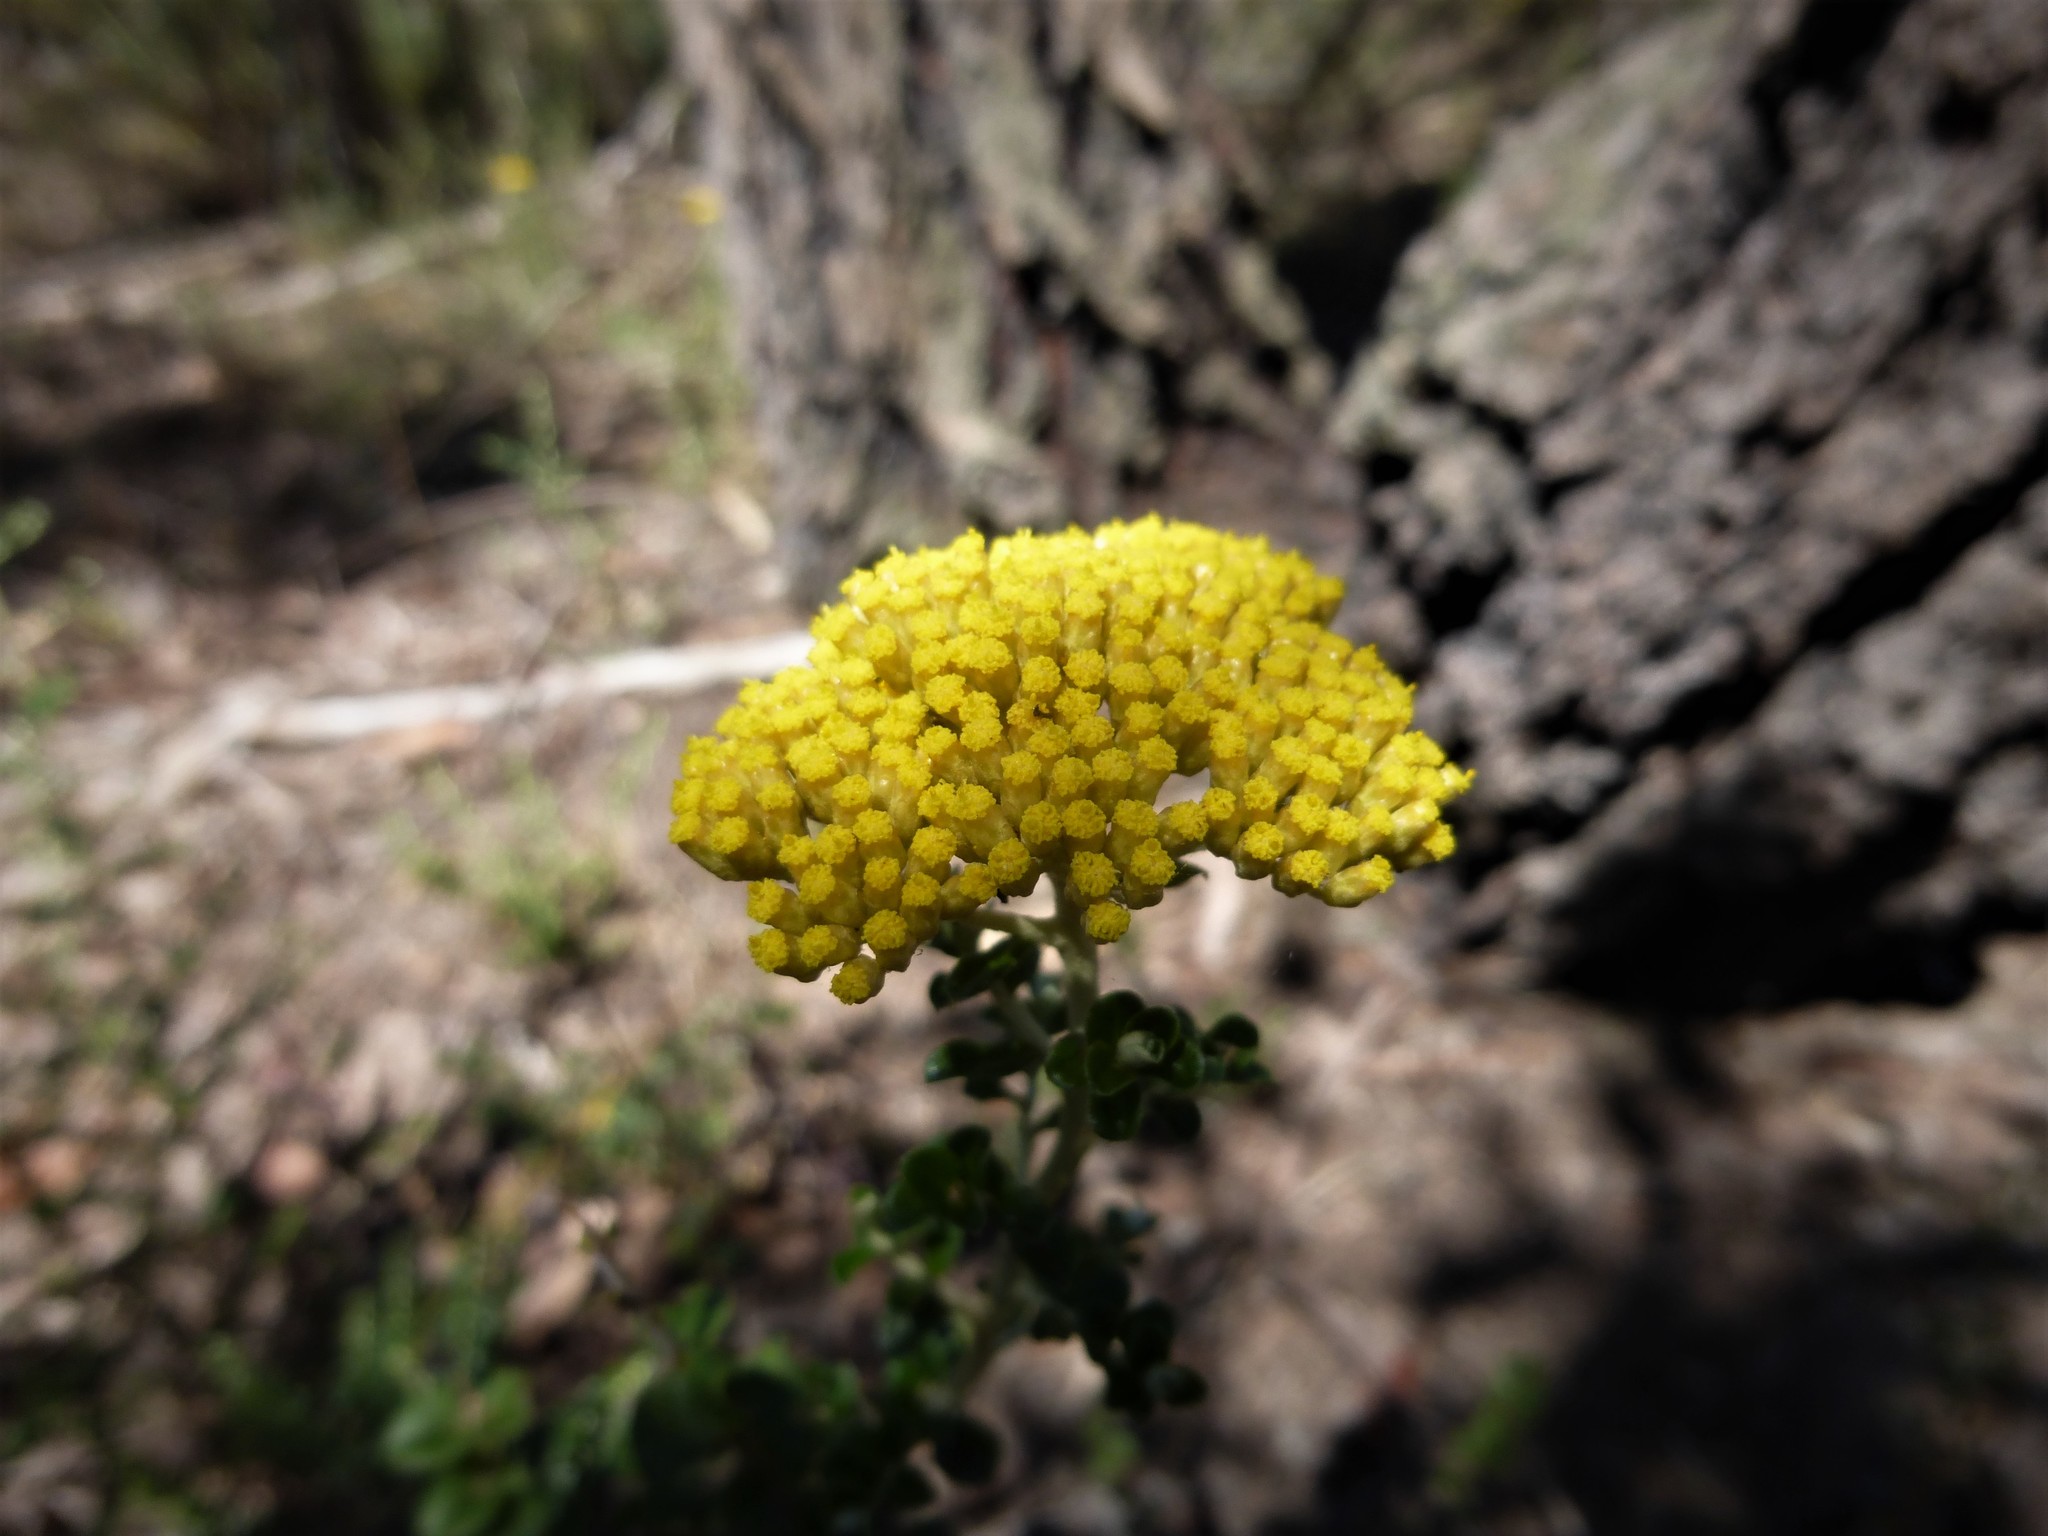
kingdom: Plantae
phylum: Tracheophyta
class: Magnoliopsida
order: Asterales
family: Asteraceae
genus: Ozothamnus
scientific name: Ozothamnus obcordatus
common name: Grey everlasting
